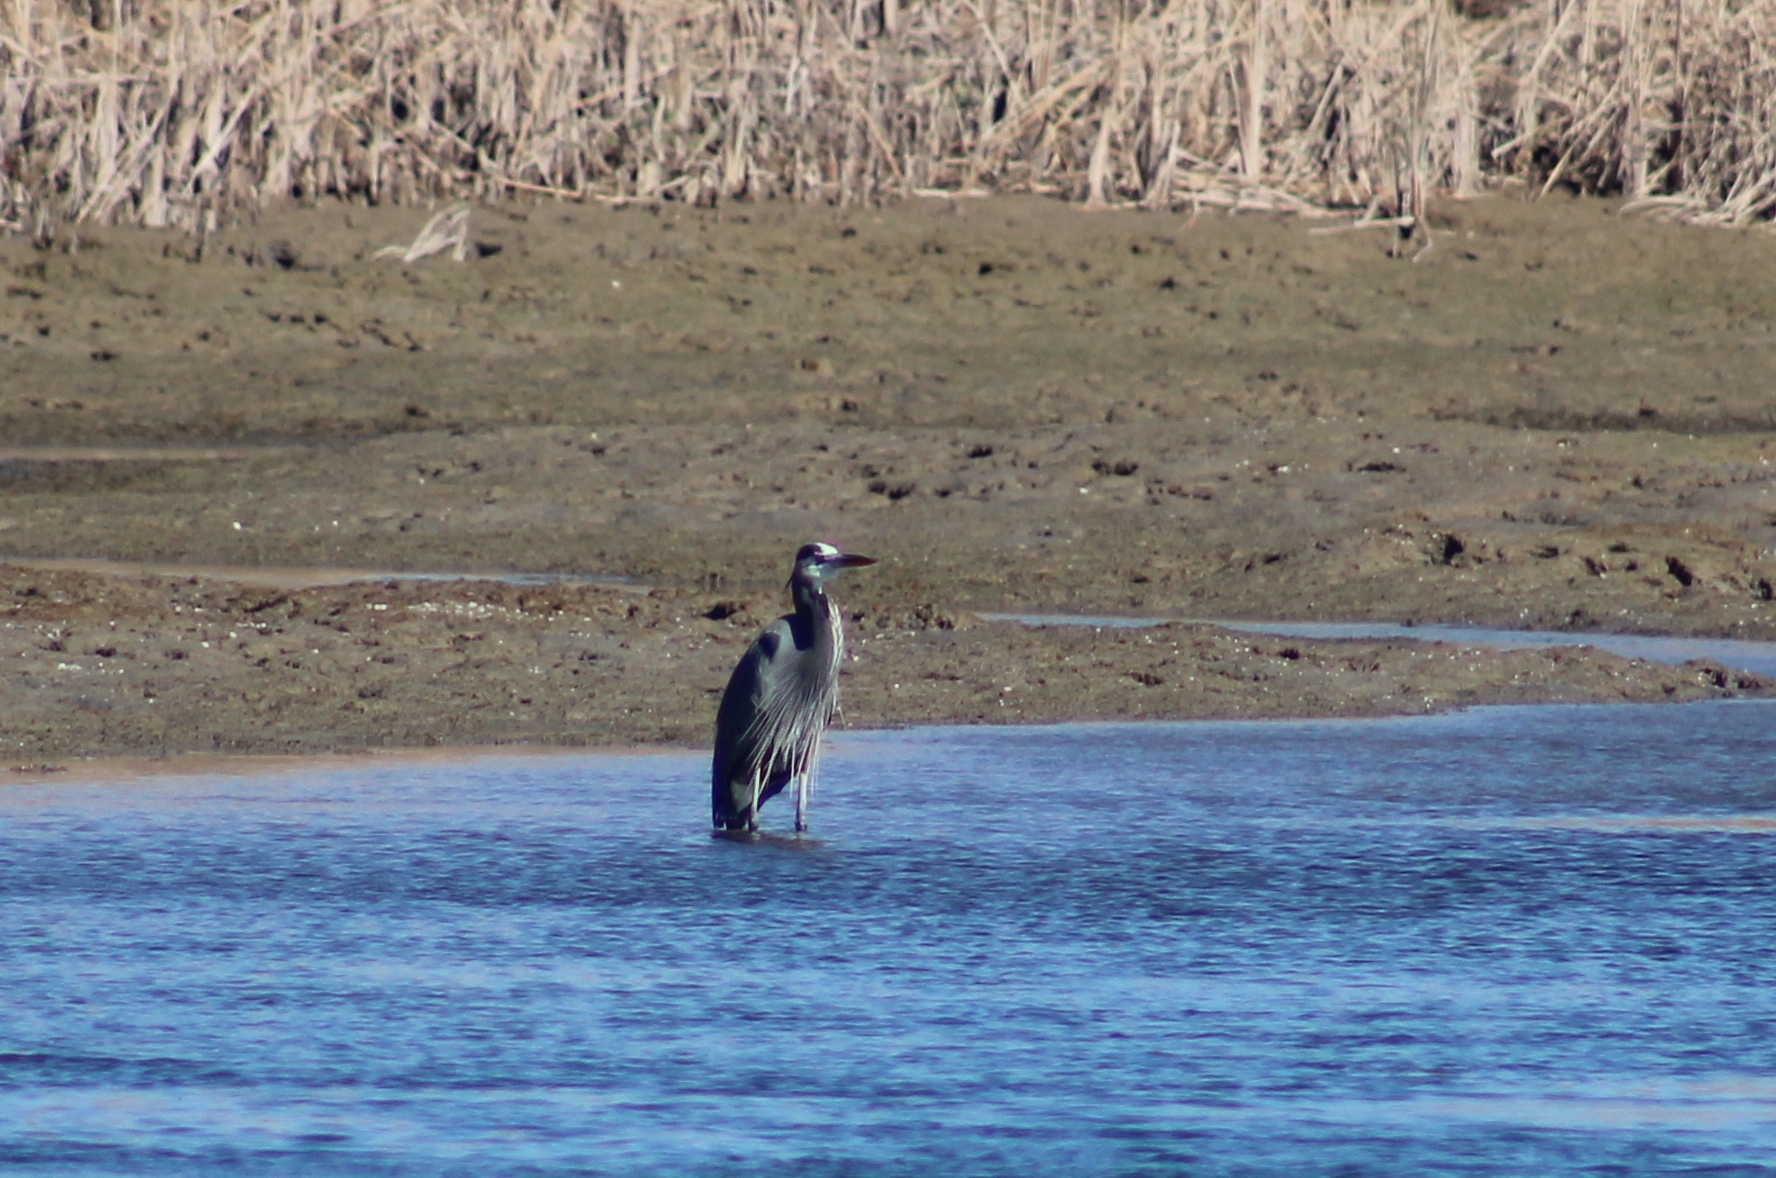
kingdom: Animalia
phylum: Chordata
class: Aves
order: Pelecaniformes
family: Ardeidae
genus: Ardea
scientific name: Ardea herodias
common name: Great blue heron
